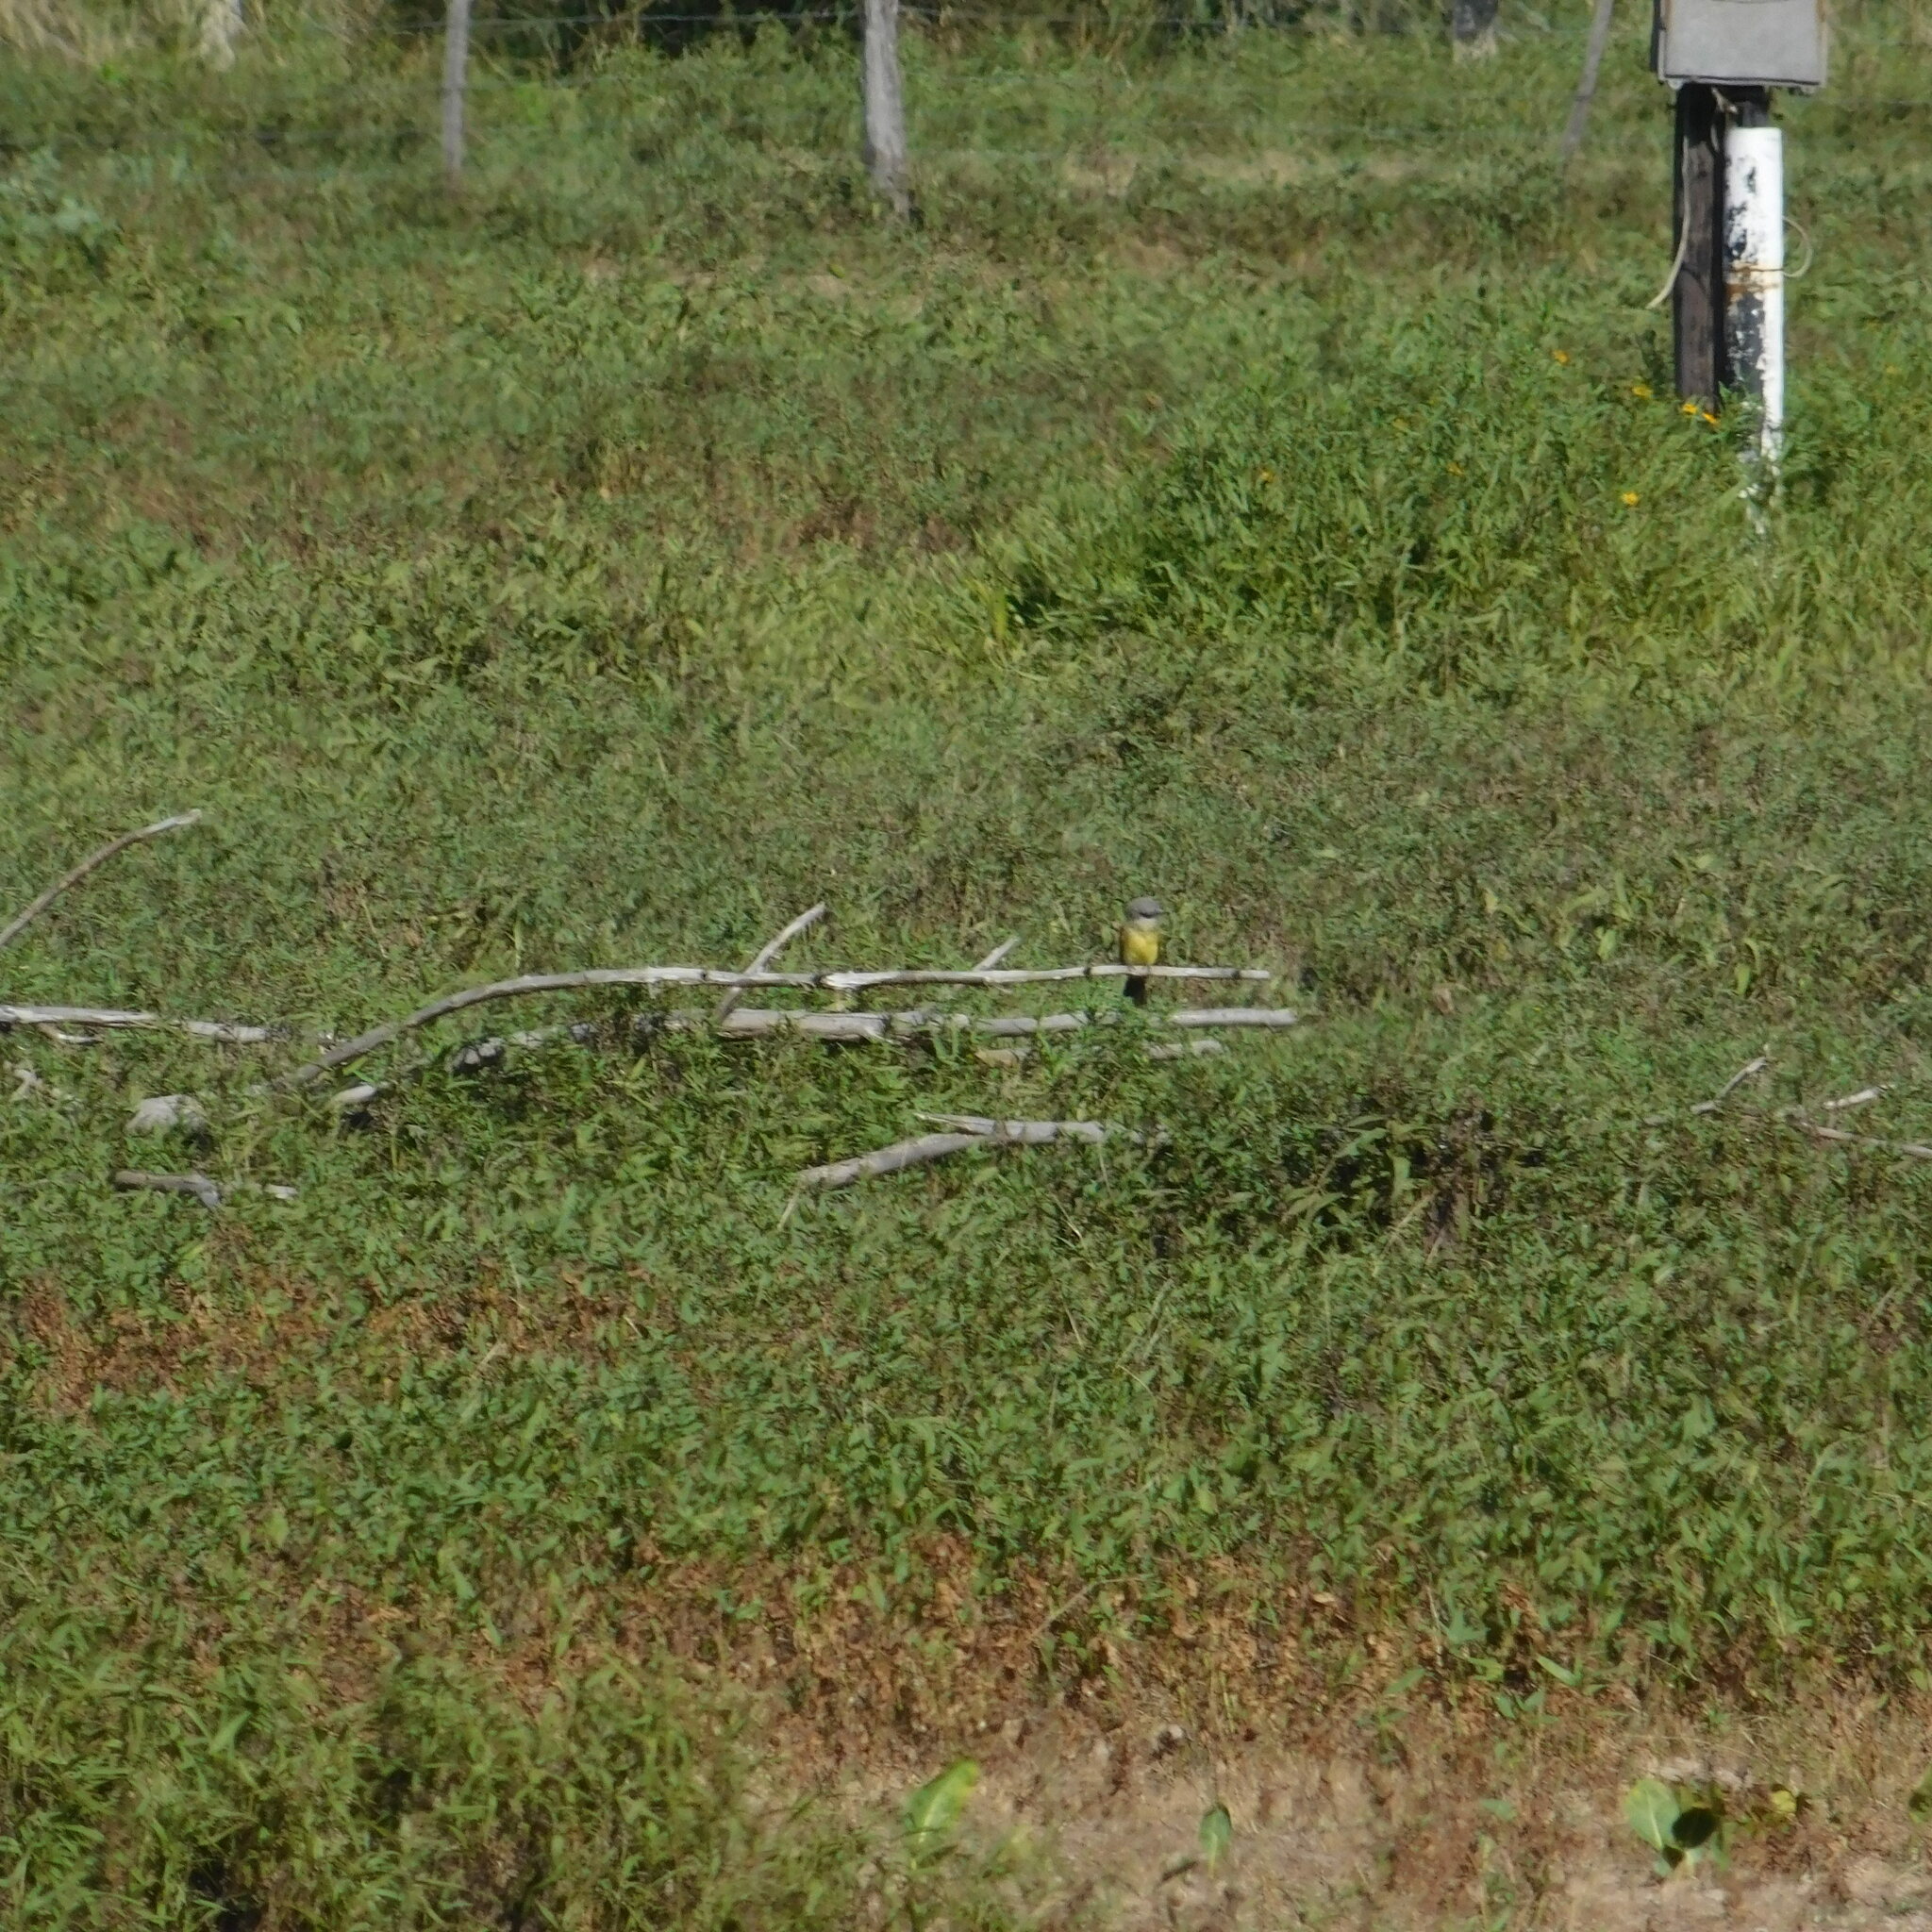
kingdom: Animalia
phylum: Chordata
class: Aves
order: Passeriformes
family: Tyrannidae
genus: Tyrannus
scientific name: Tyrannus melancholicus
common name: Tropical kingbird
